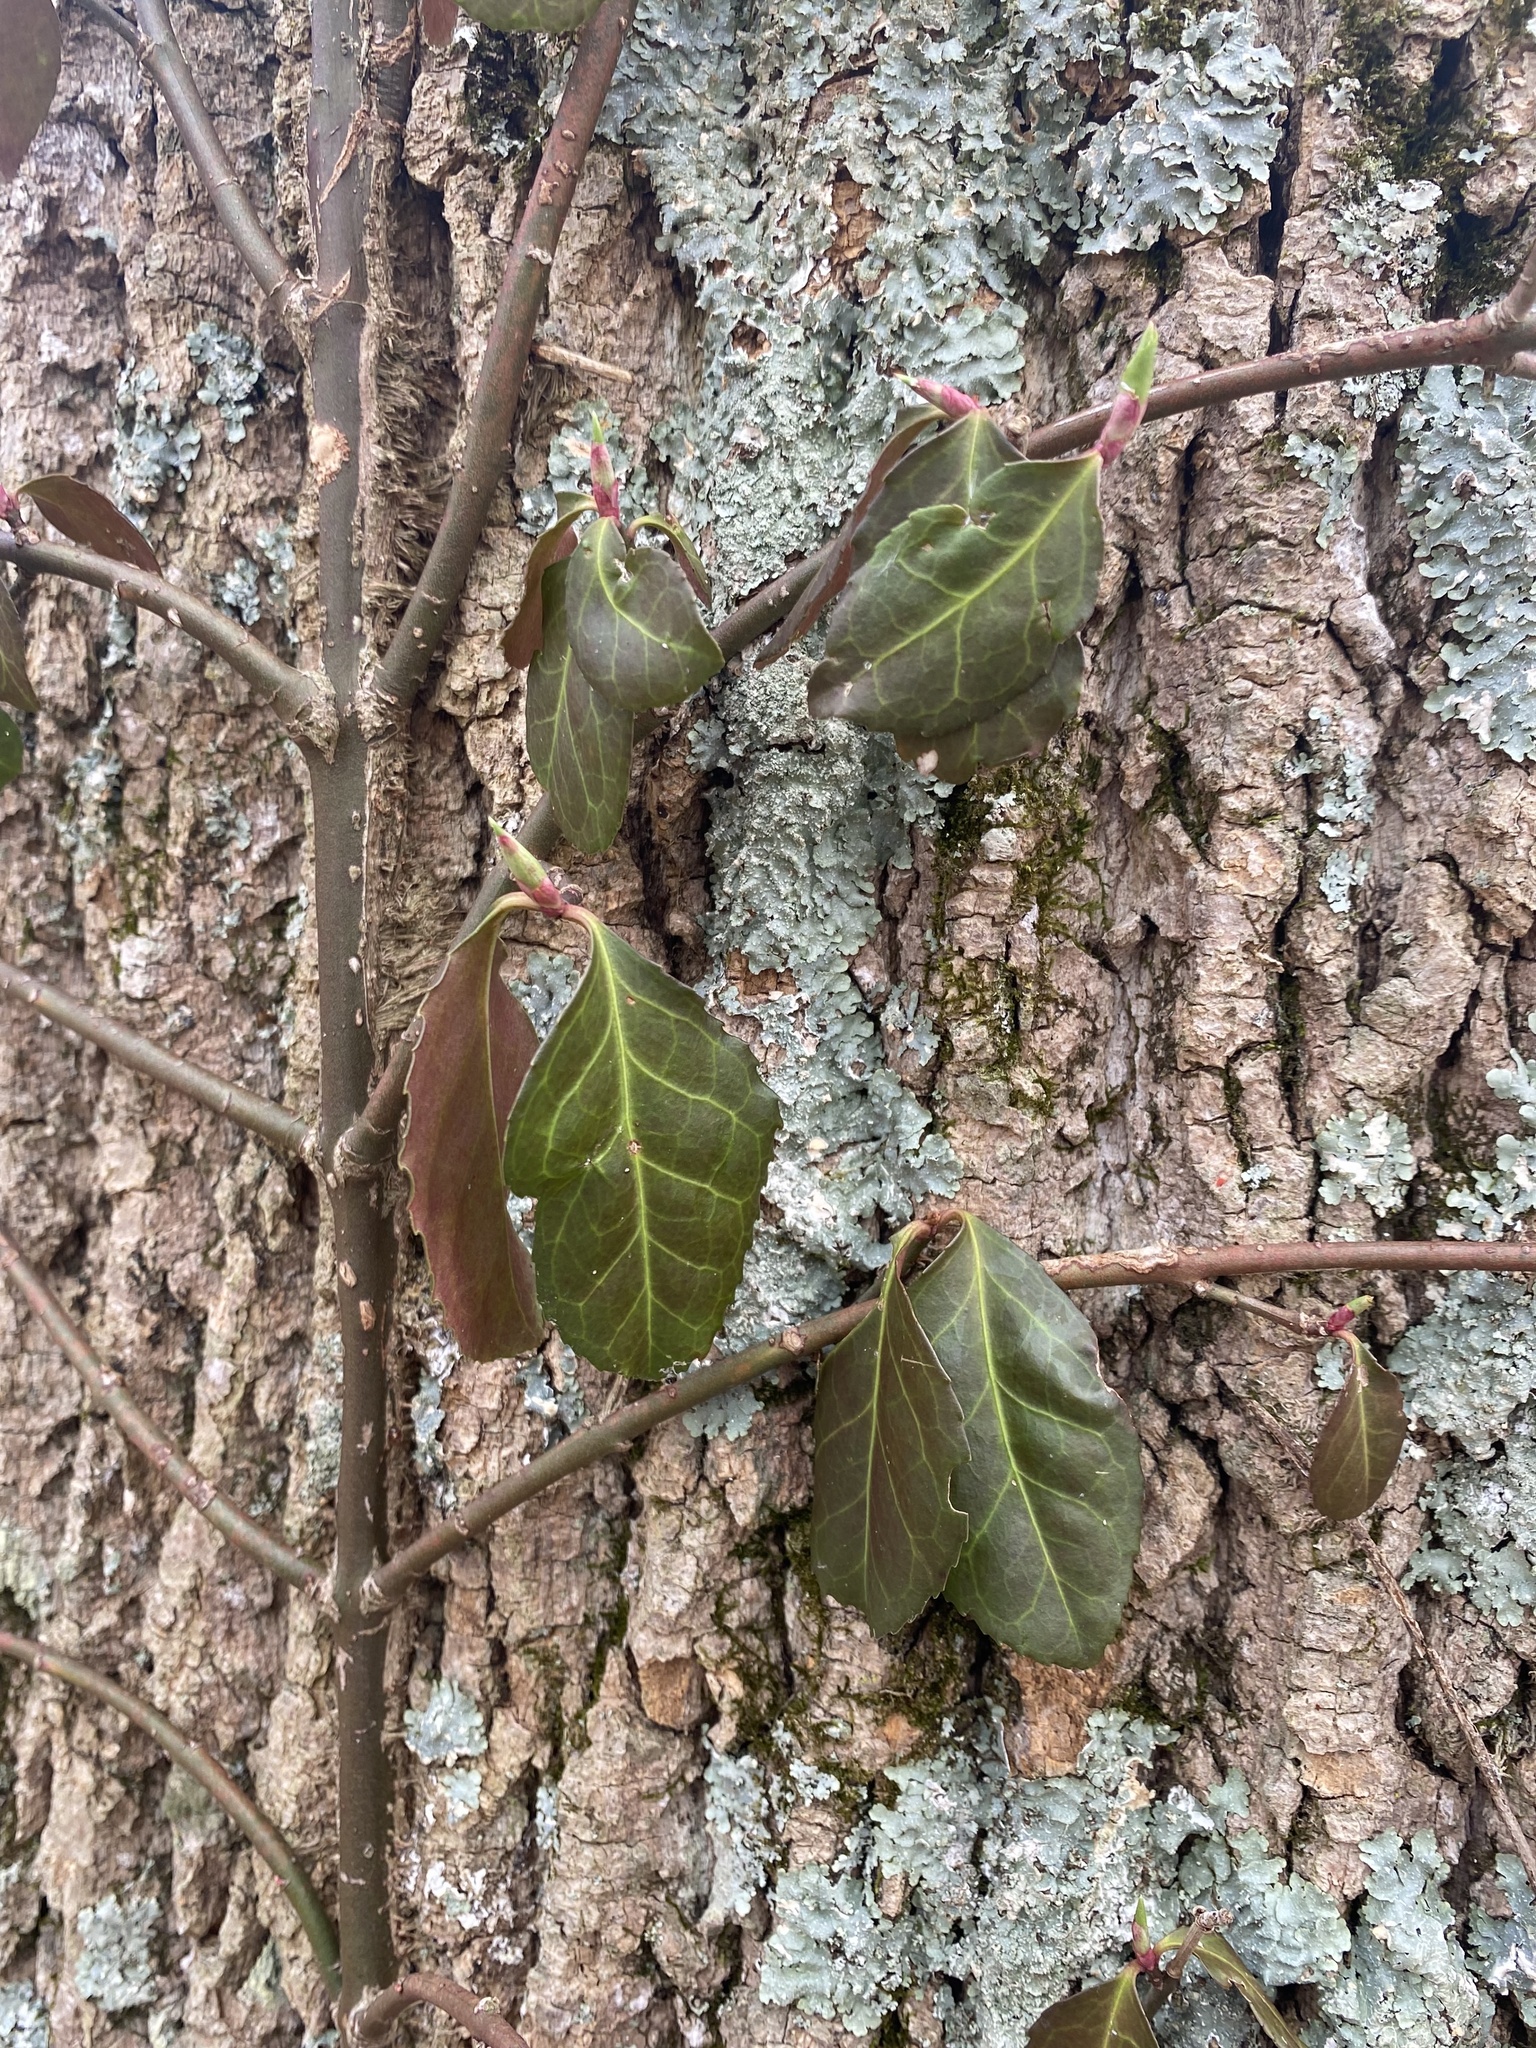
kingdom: Plantae
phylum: Tracheophyta
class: Magnoliopsida
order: Celastrales
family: Celastraceae
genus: Euonymus
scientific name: Euonymus fortunei
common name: Climbing euonymus
